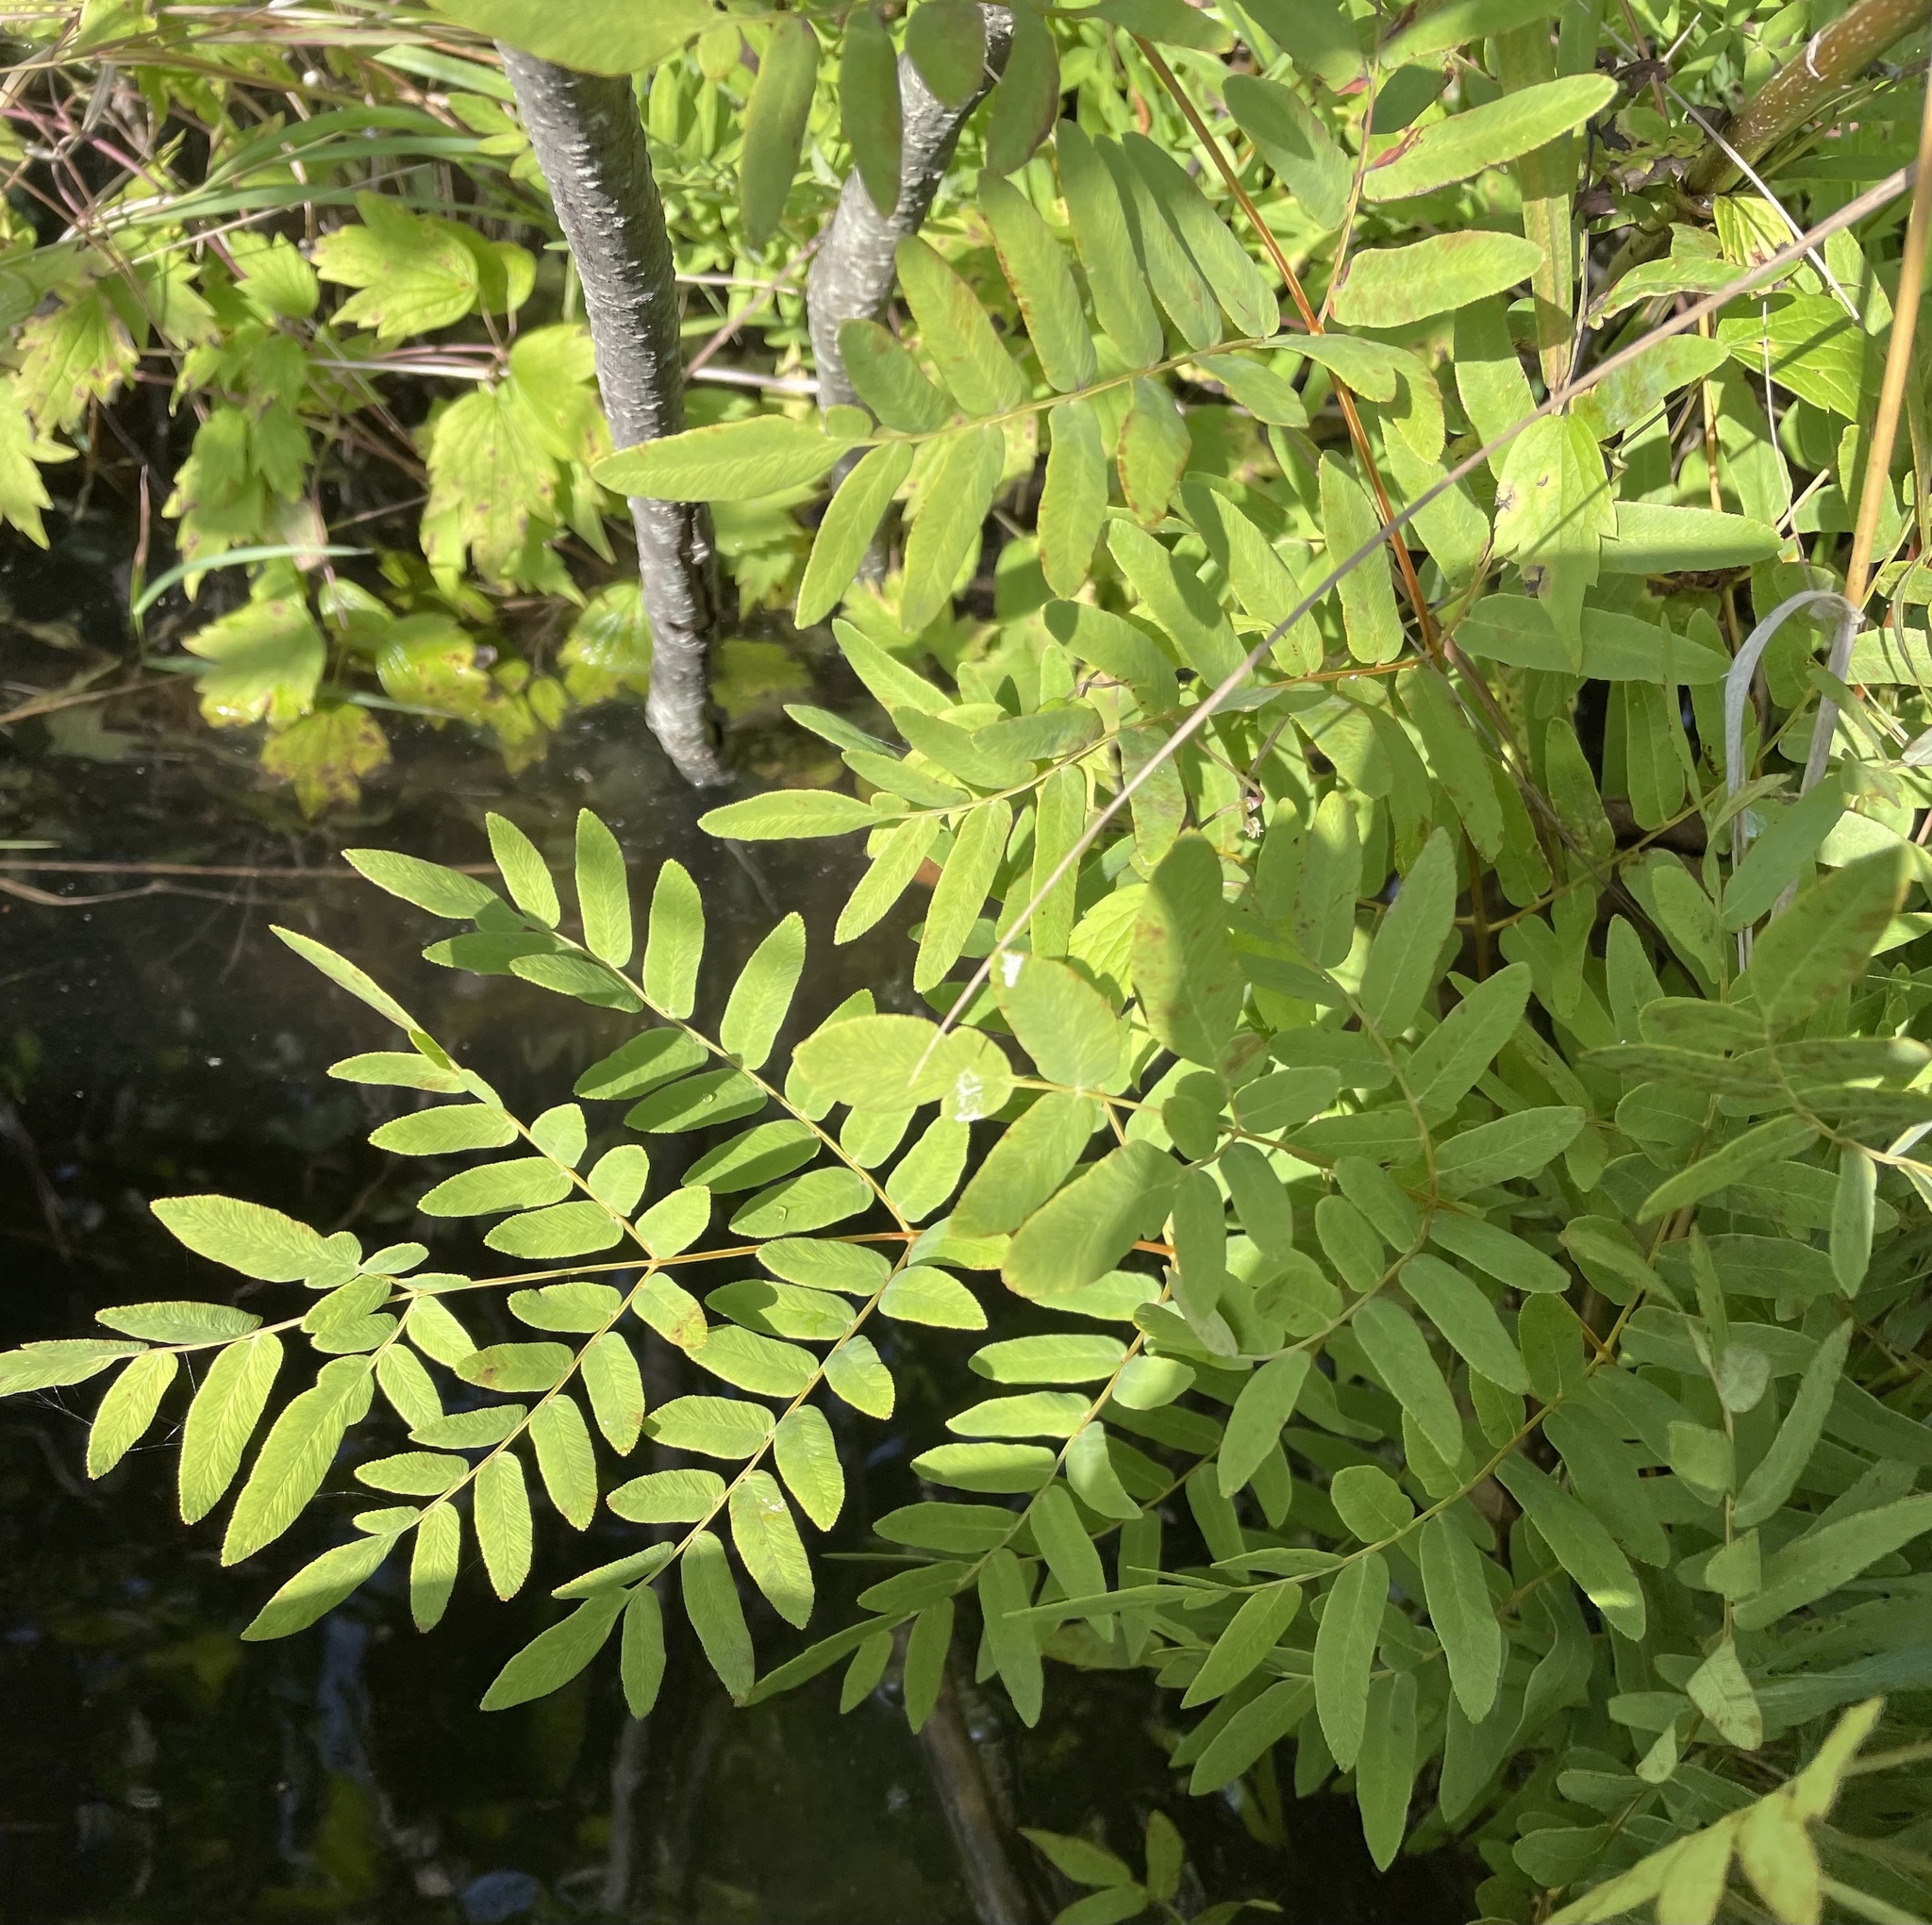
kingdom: Plantae
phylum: Tracheophyta
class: Polypodiopsida
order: Osmundales
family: Osmundaceae
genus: Osmunda
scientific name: Osmunda spectabilis
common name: American royal fern
